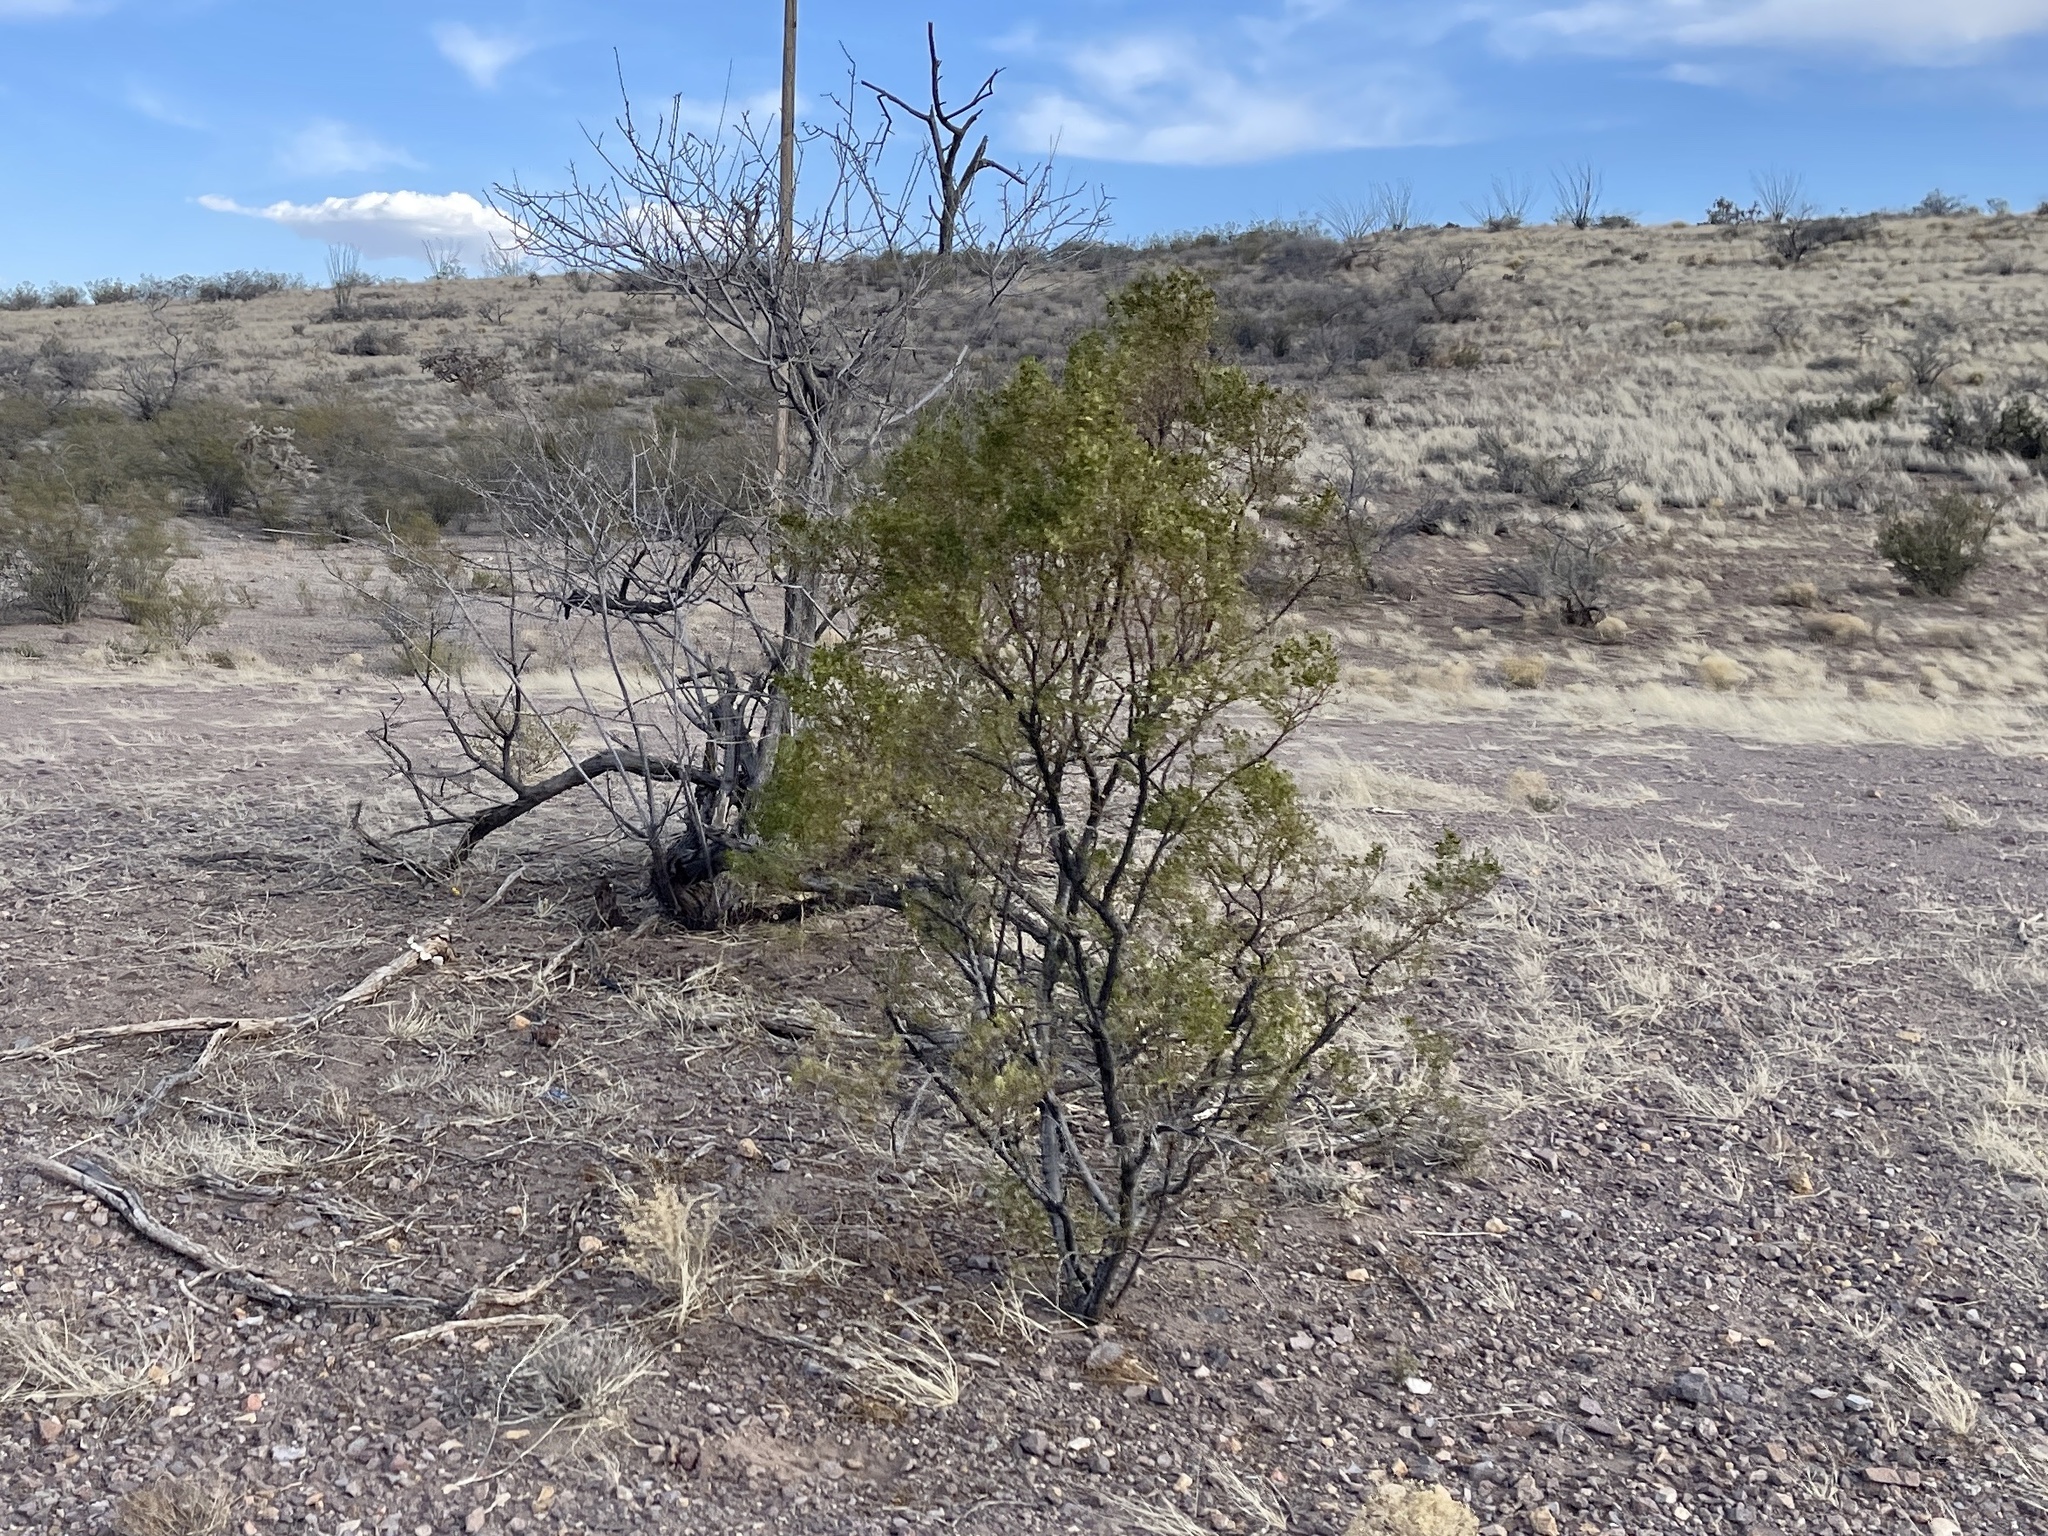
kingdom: Plantae
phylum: Tracheophyta
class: Magnoliopsida
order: Zygophyllales
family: Zygophyllaceae
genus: Larrea
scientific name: Larrea tridentata
